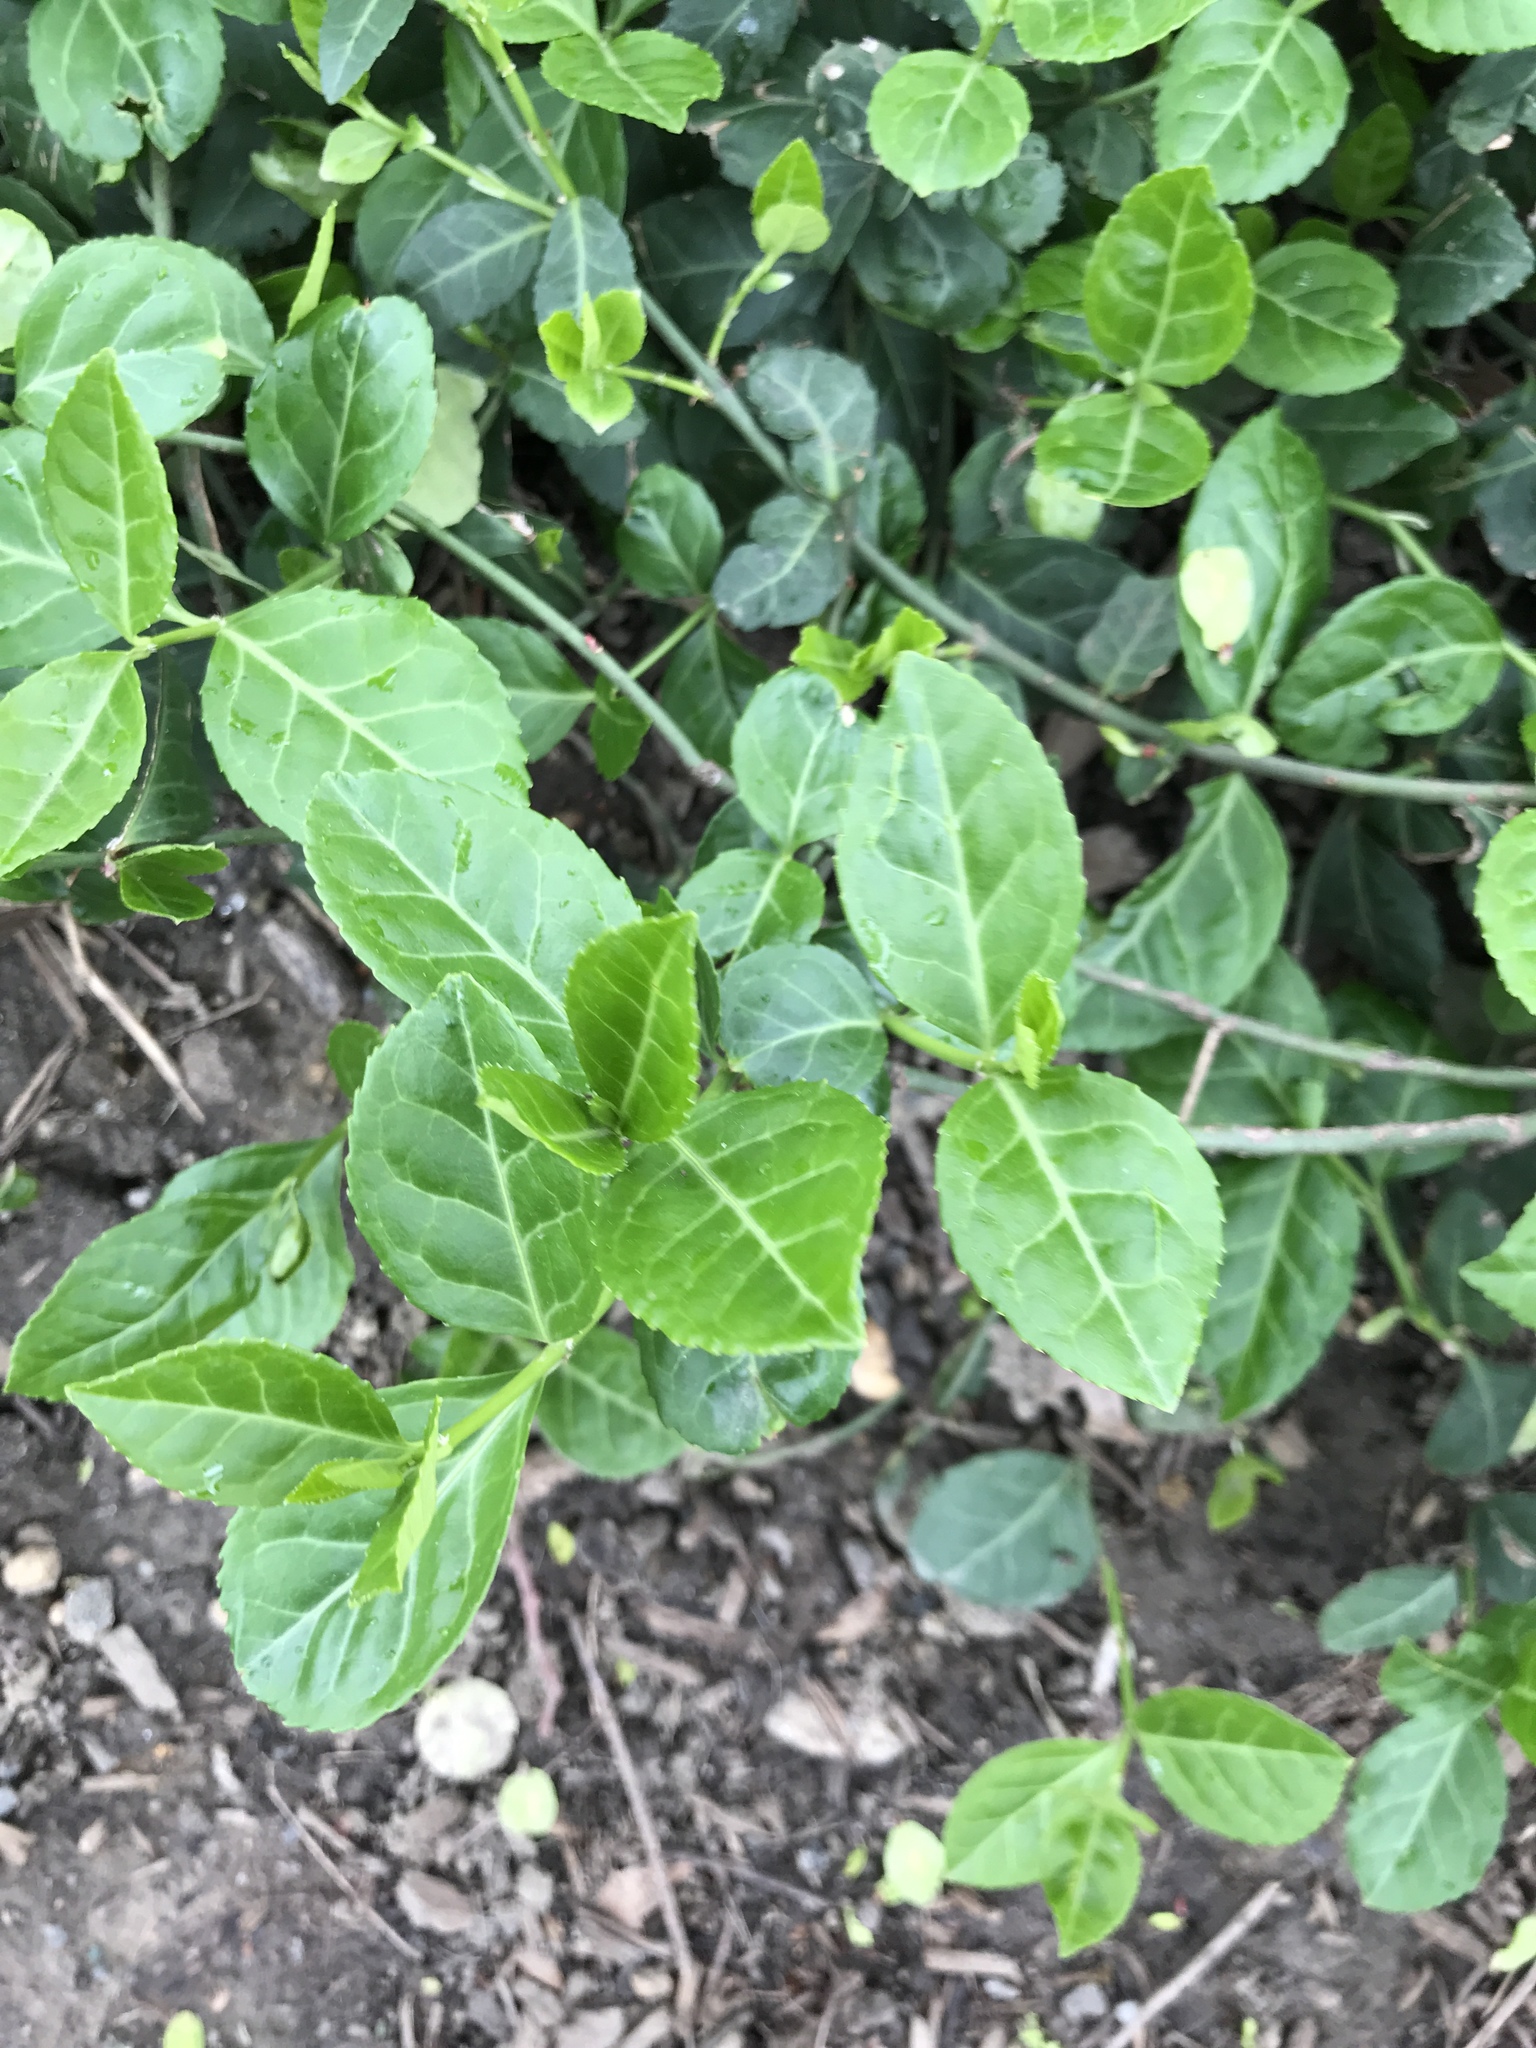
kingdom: Plantae
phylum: Tracheophyta
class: Magnoliopsida
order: Celastrales
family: Celastraceae
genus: Euonymus
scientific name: Euonymus fortunei
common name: Climbing euonymus
